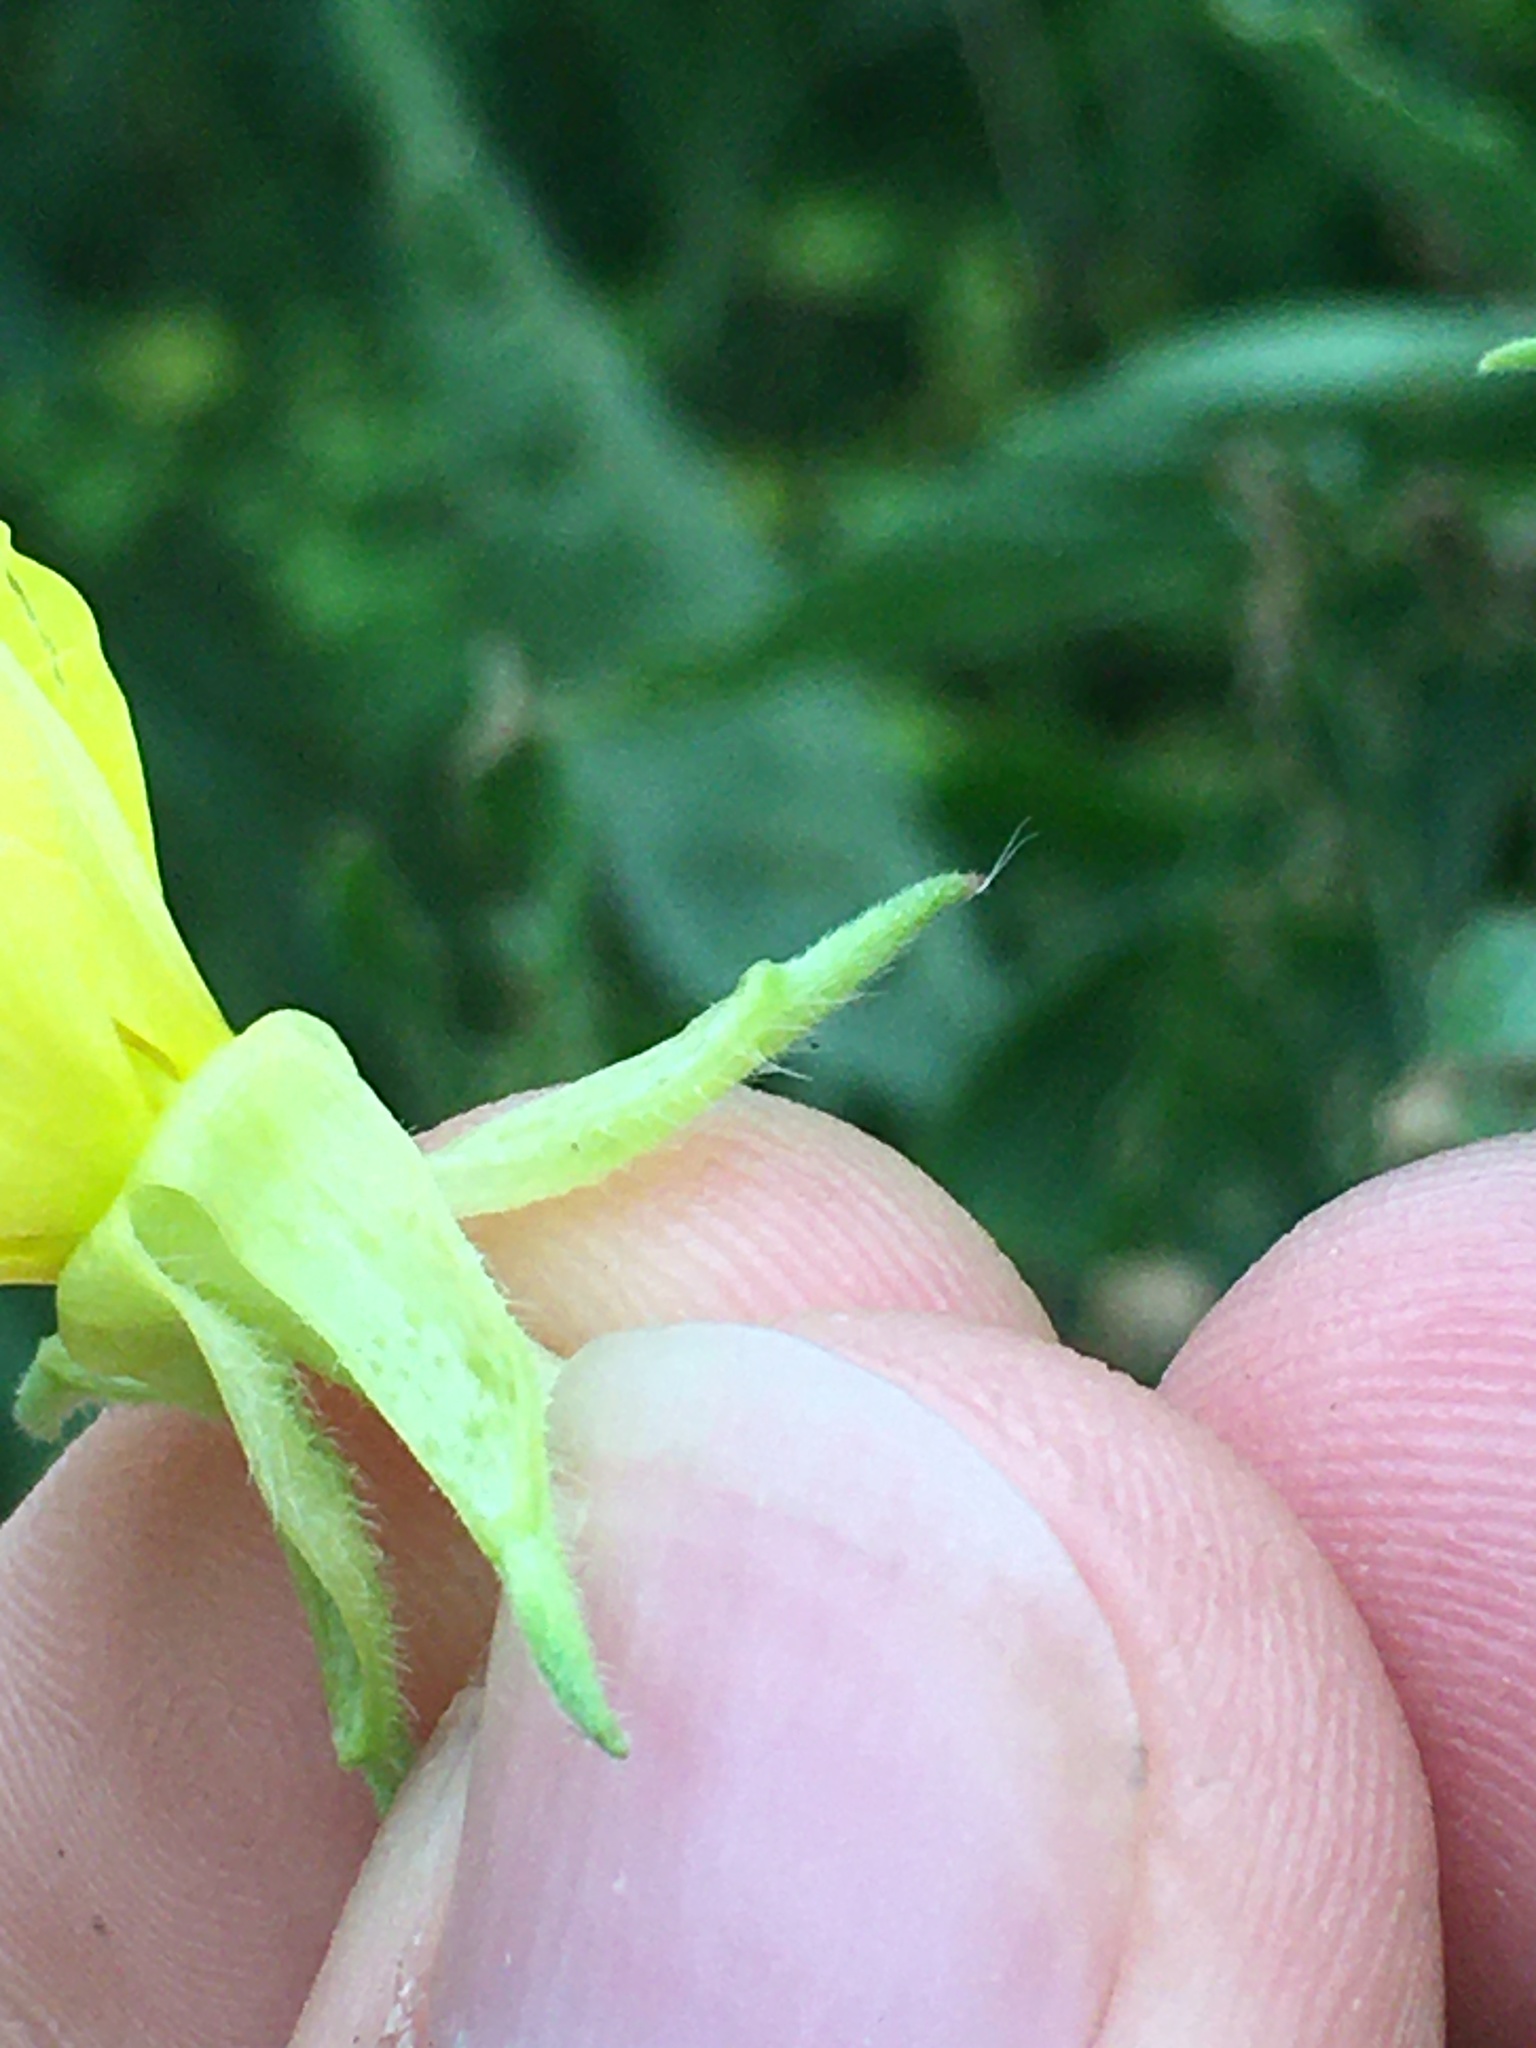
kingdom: Plantae
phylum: Tracheophyta
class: Magnoliopsida
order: Myrtales
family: Onagraceae
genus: Oenothera
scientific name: Oenothera parviflora
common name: Least evening-primrose
